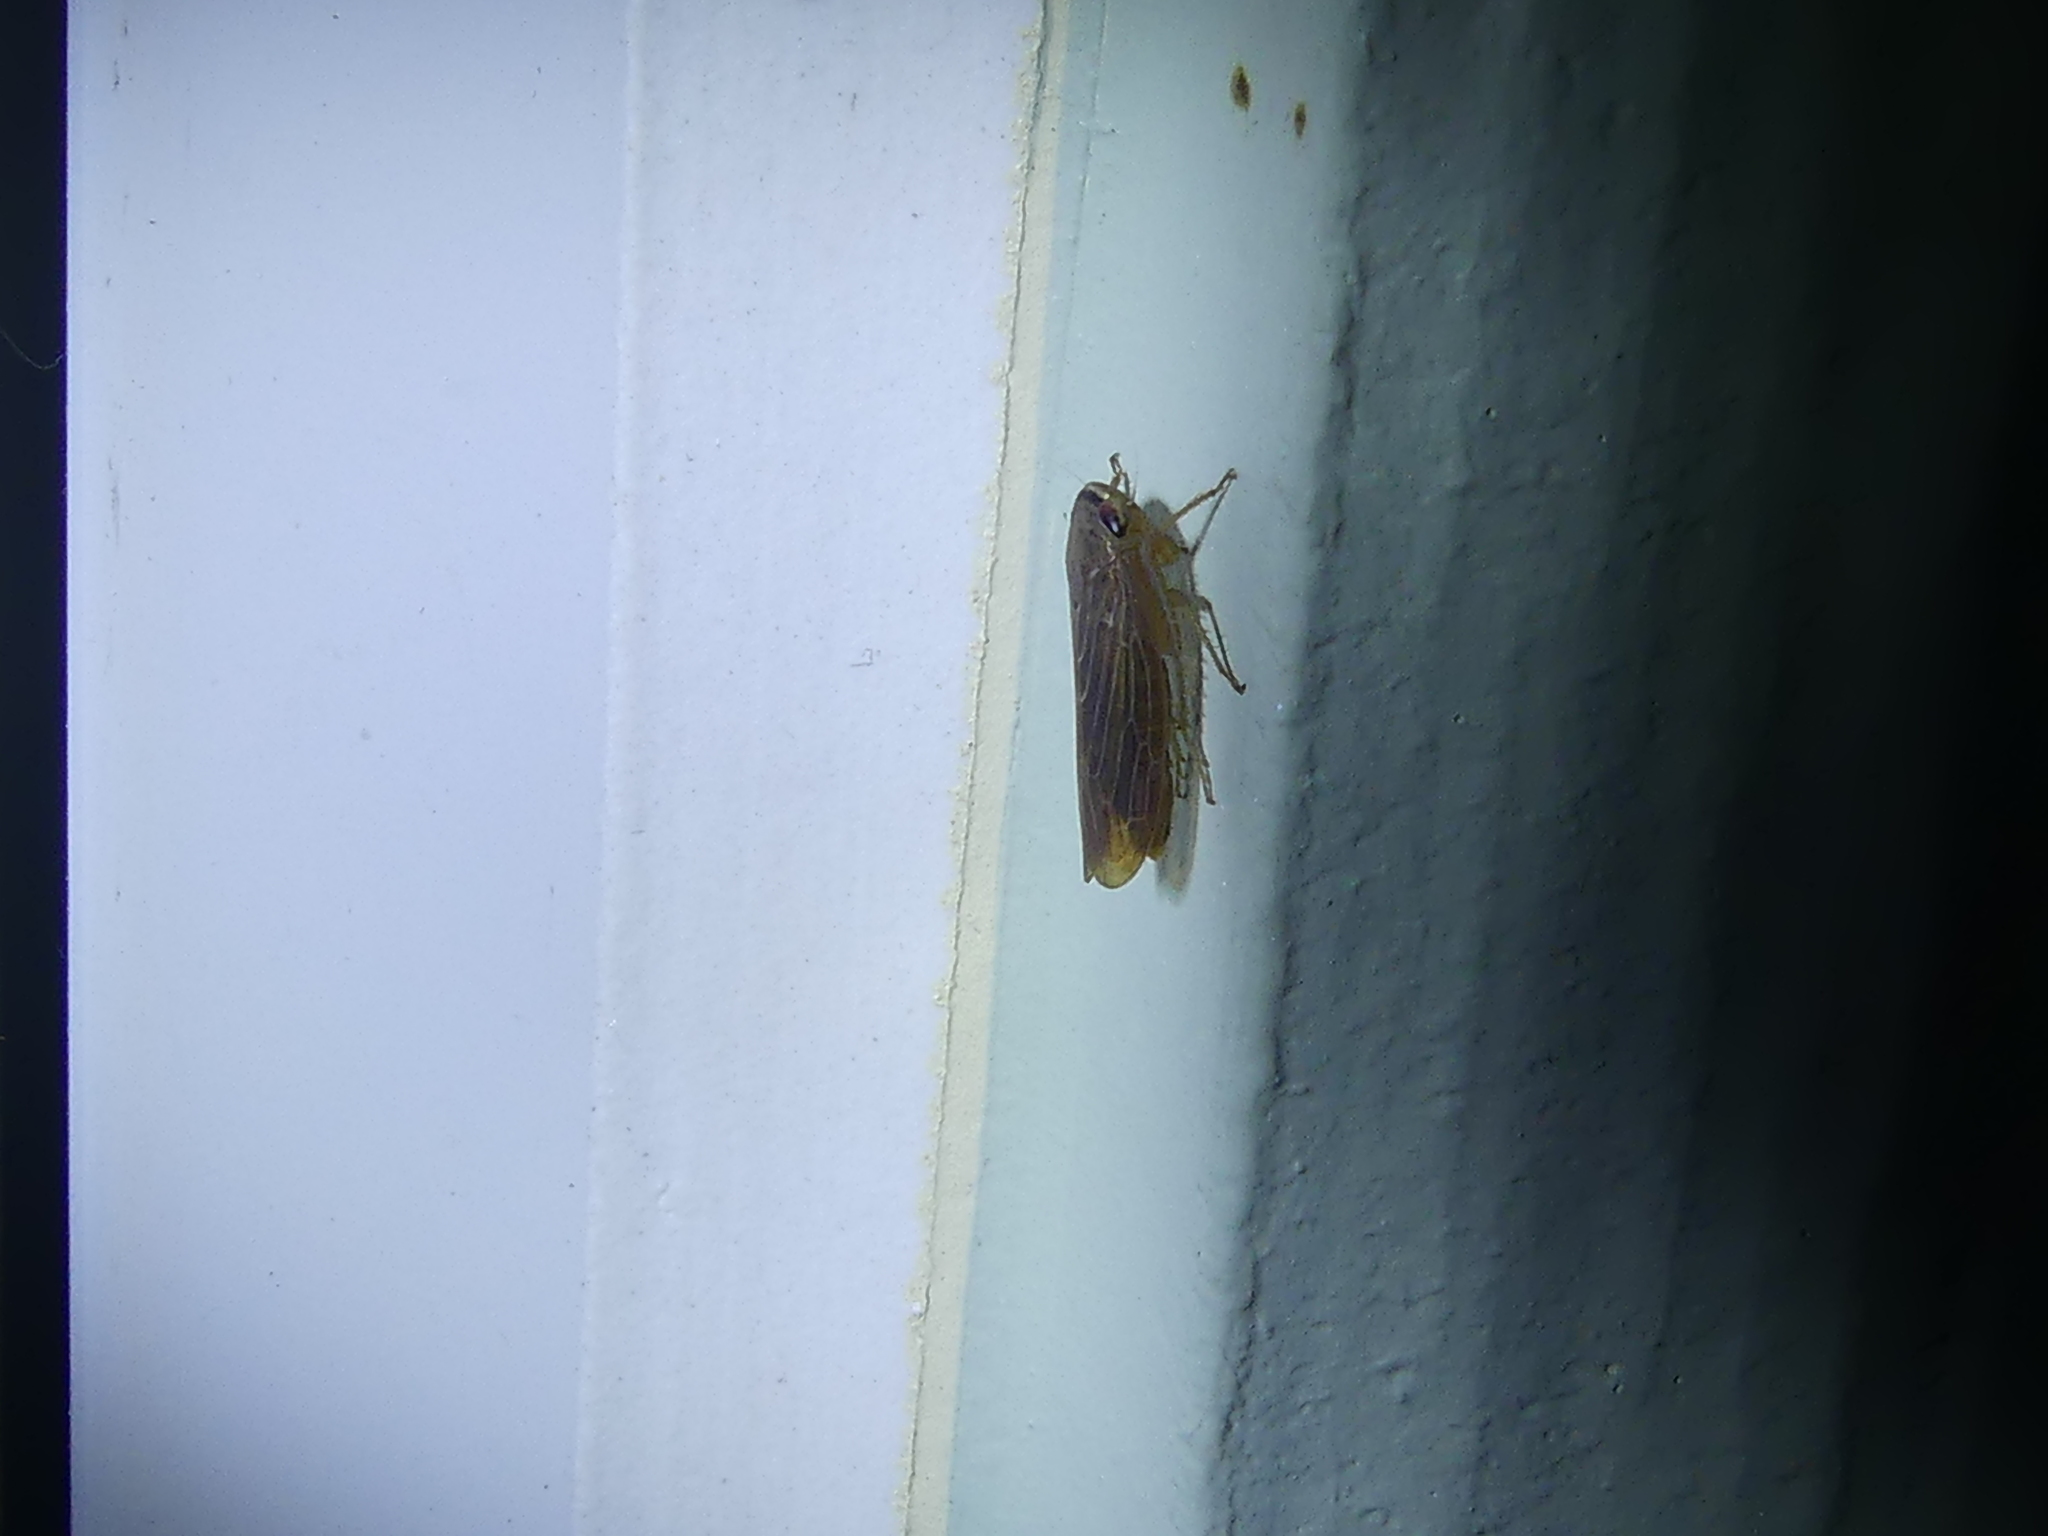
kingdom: Animalia
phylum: Arthropoda
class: Insecta
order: Hemiptera
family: Cicadellidae
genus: Chlorotettix
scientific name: Chlorotettix necopinus
